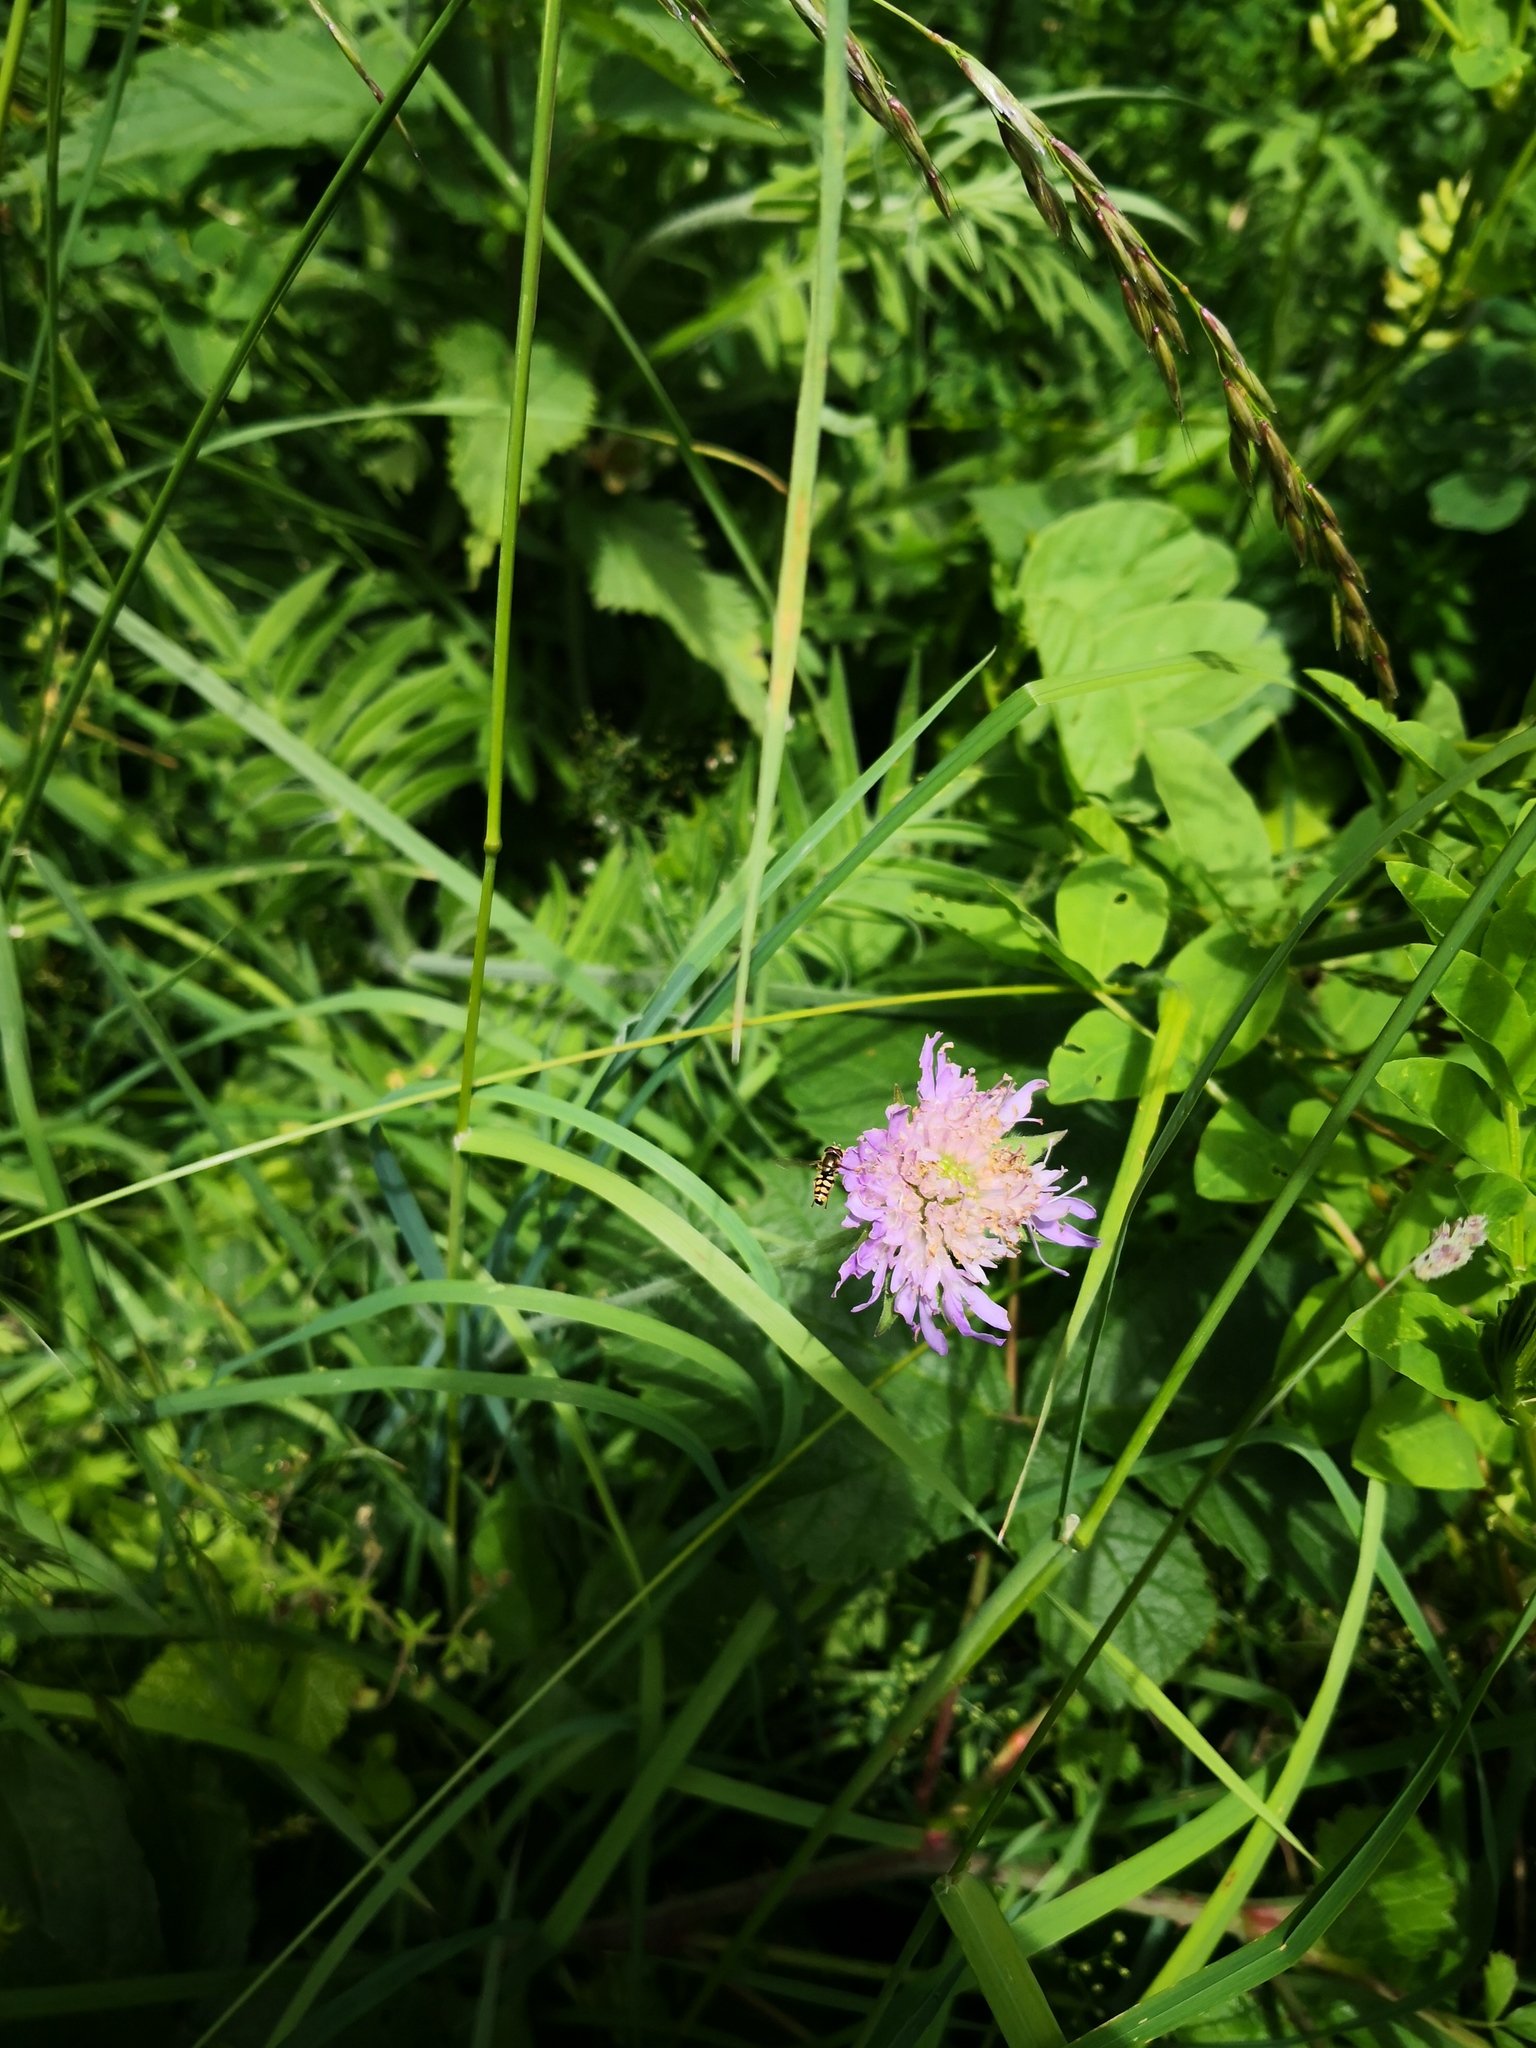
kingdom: Plantae
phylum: Tracheophyta
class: Magnoliopsida
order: Dipsacales
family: Caprifoliaceae
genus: Knautia
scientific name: Knautia arvensis
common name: Field scabiosa
